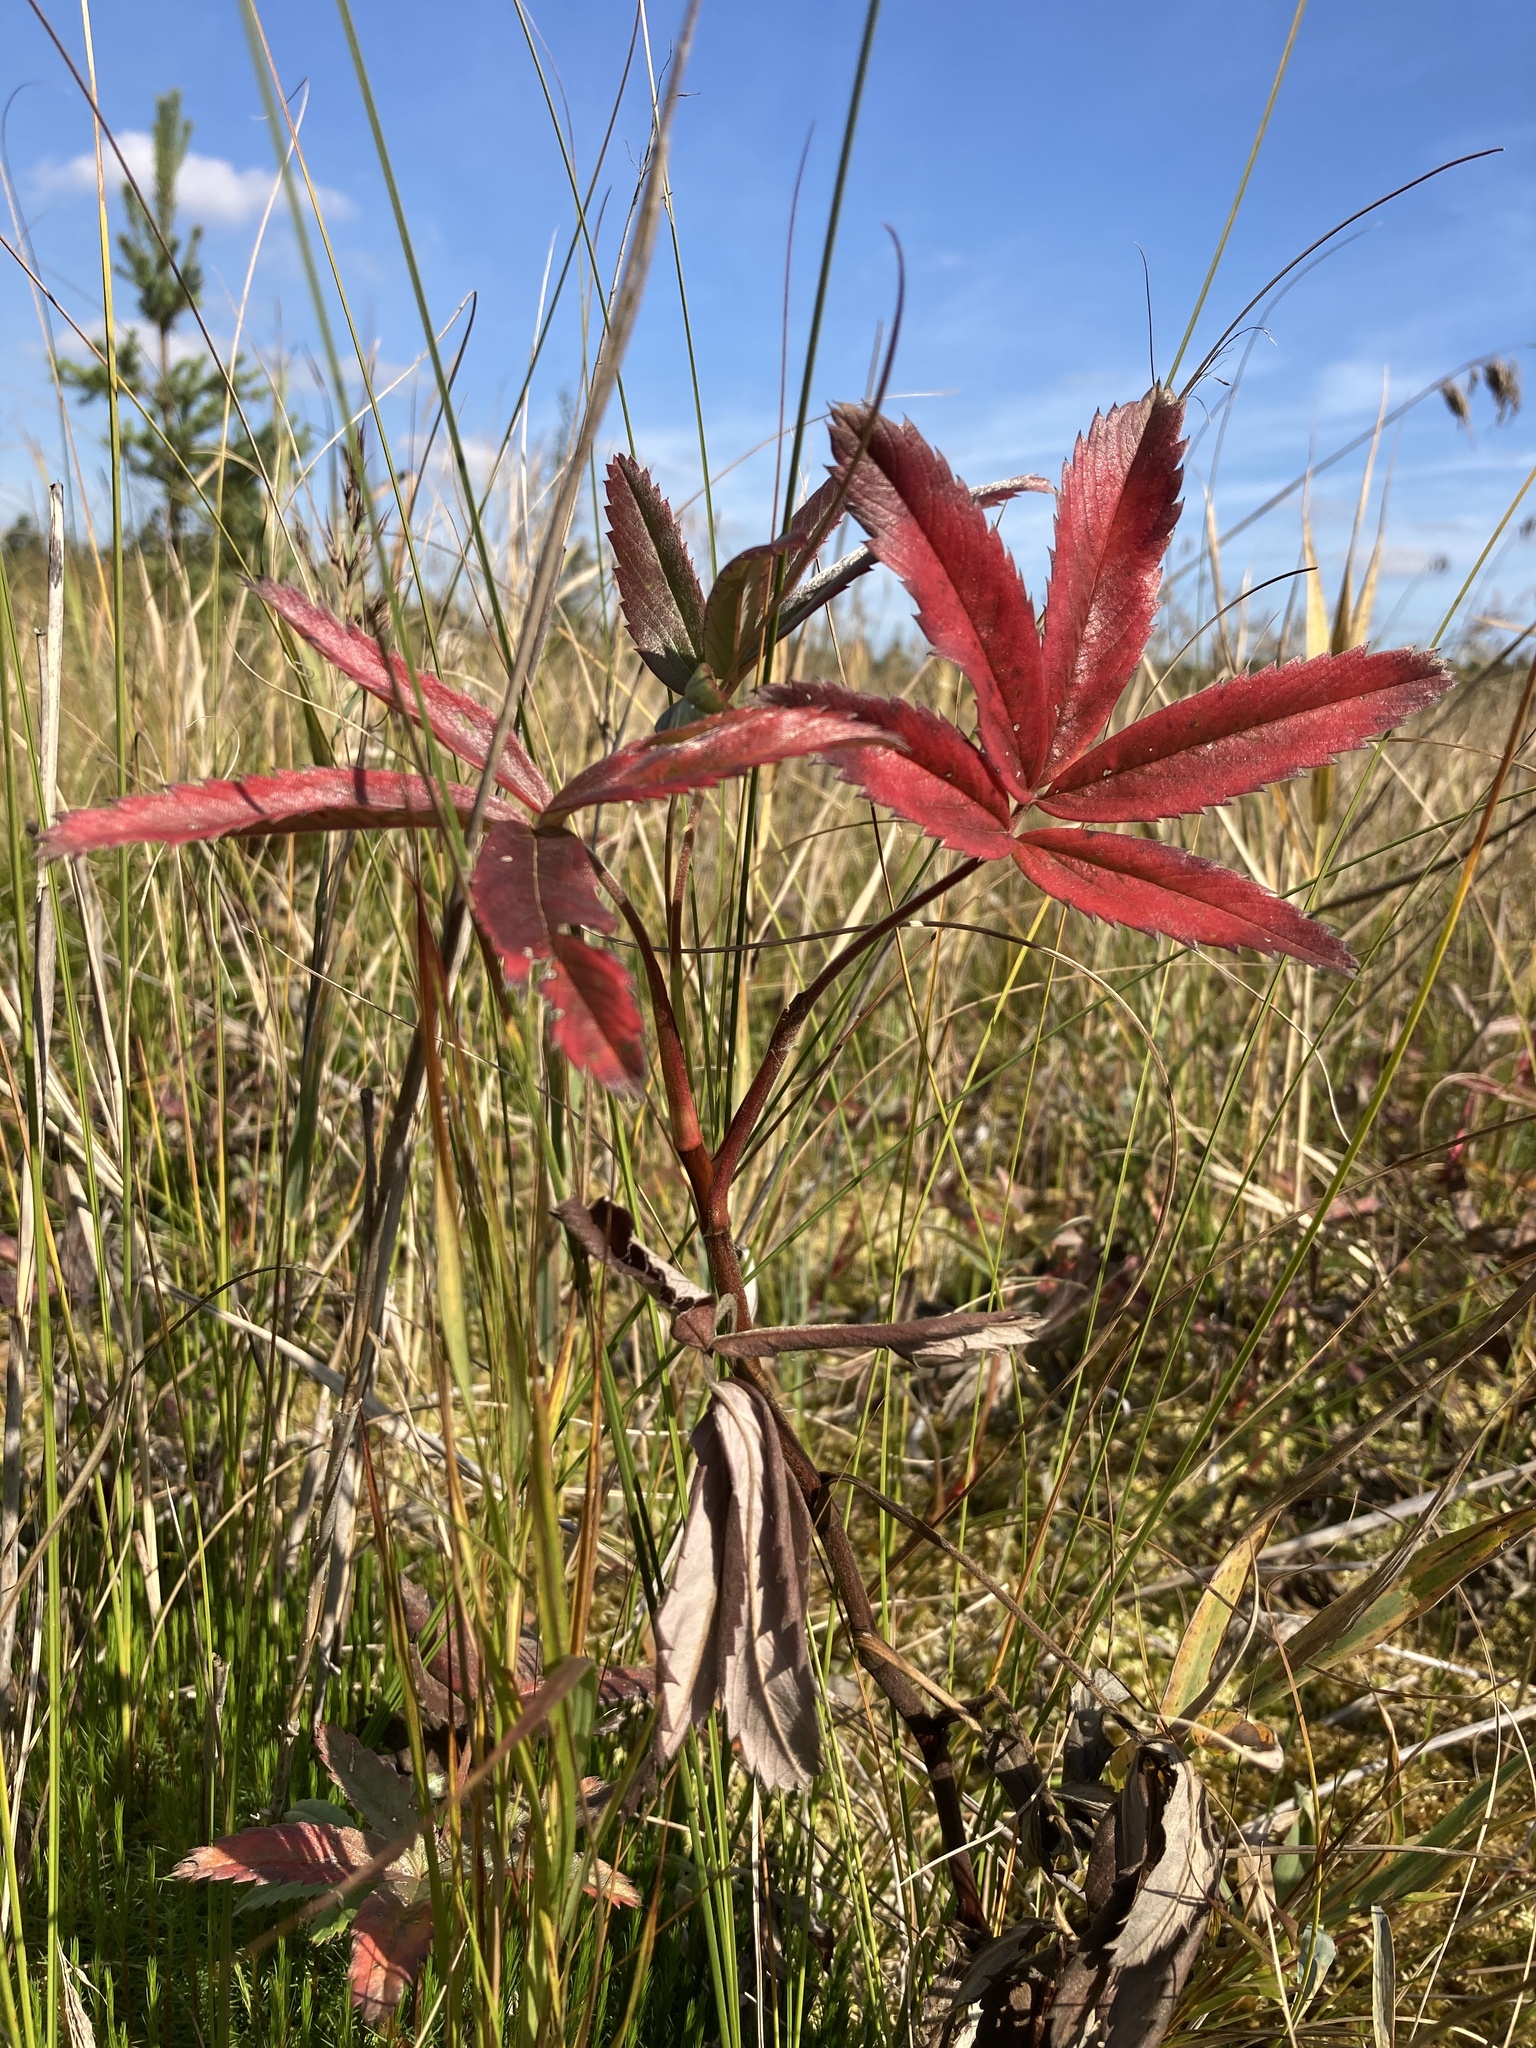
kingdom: Plantae
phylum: Tracheophyta
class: Magnoliopsida
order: Rosales
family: Rosaceae
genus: Comarum
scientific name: Comarum palustre
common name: Marsh cinquefoil
